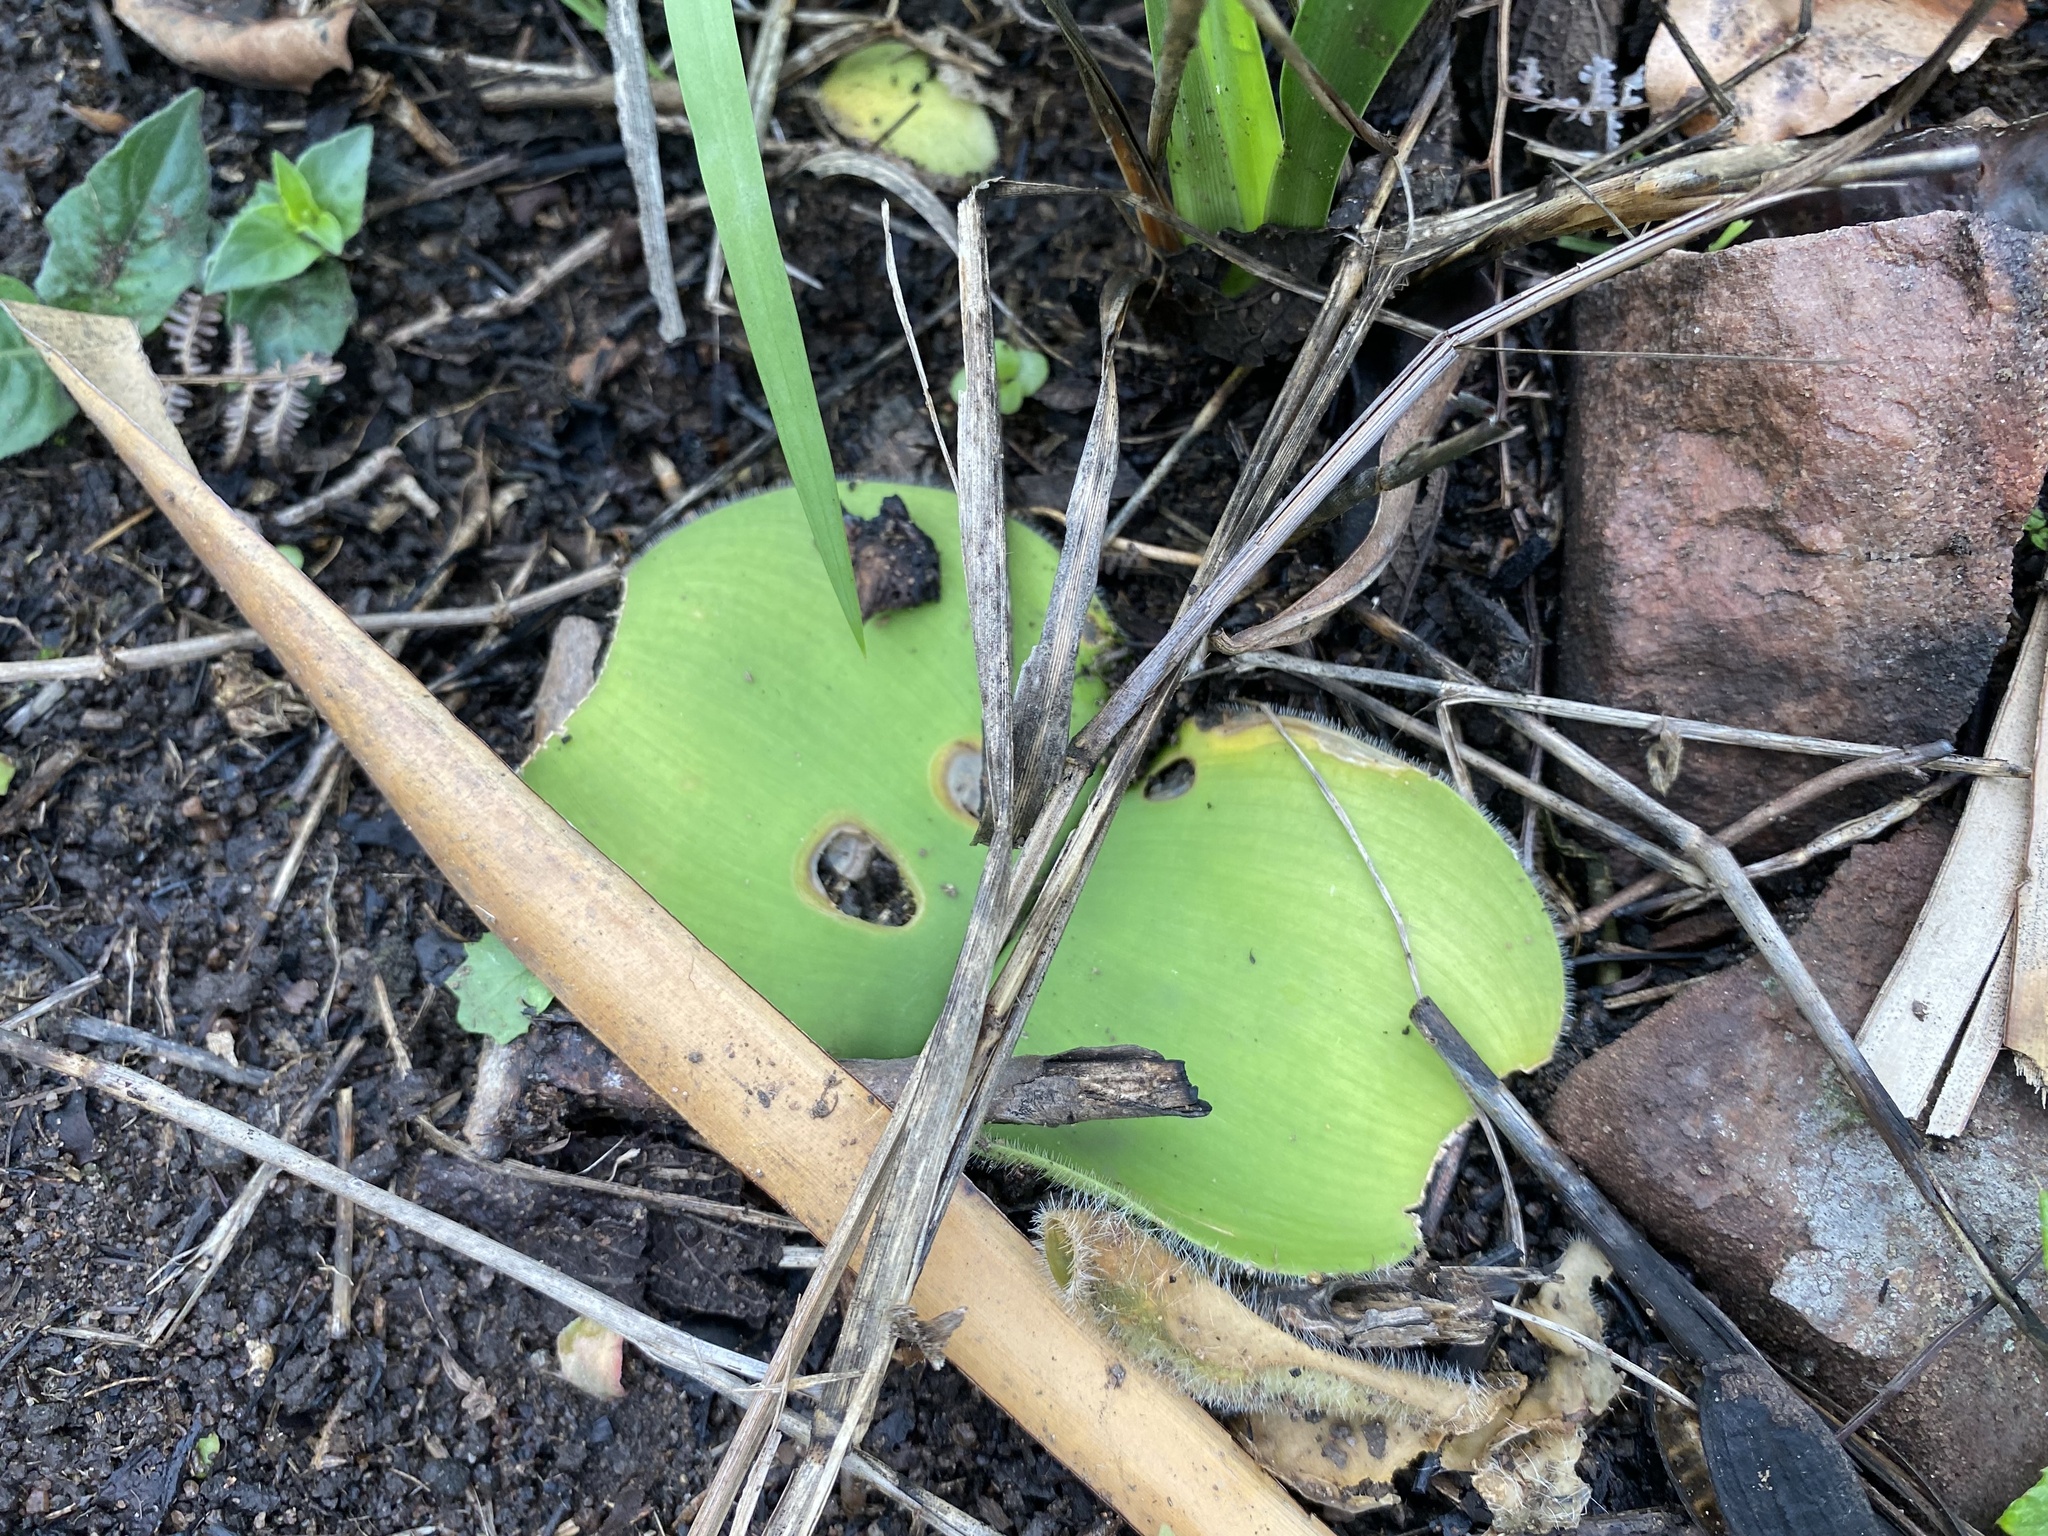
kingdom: Plantae
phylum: Tracheophyta
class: Liliopsida
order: Asparagales
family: Amaryllidaceae
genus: Haemanthus
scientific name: Haemanthus deformis
